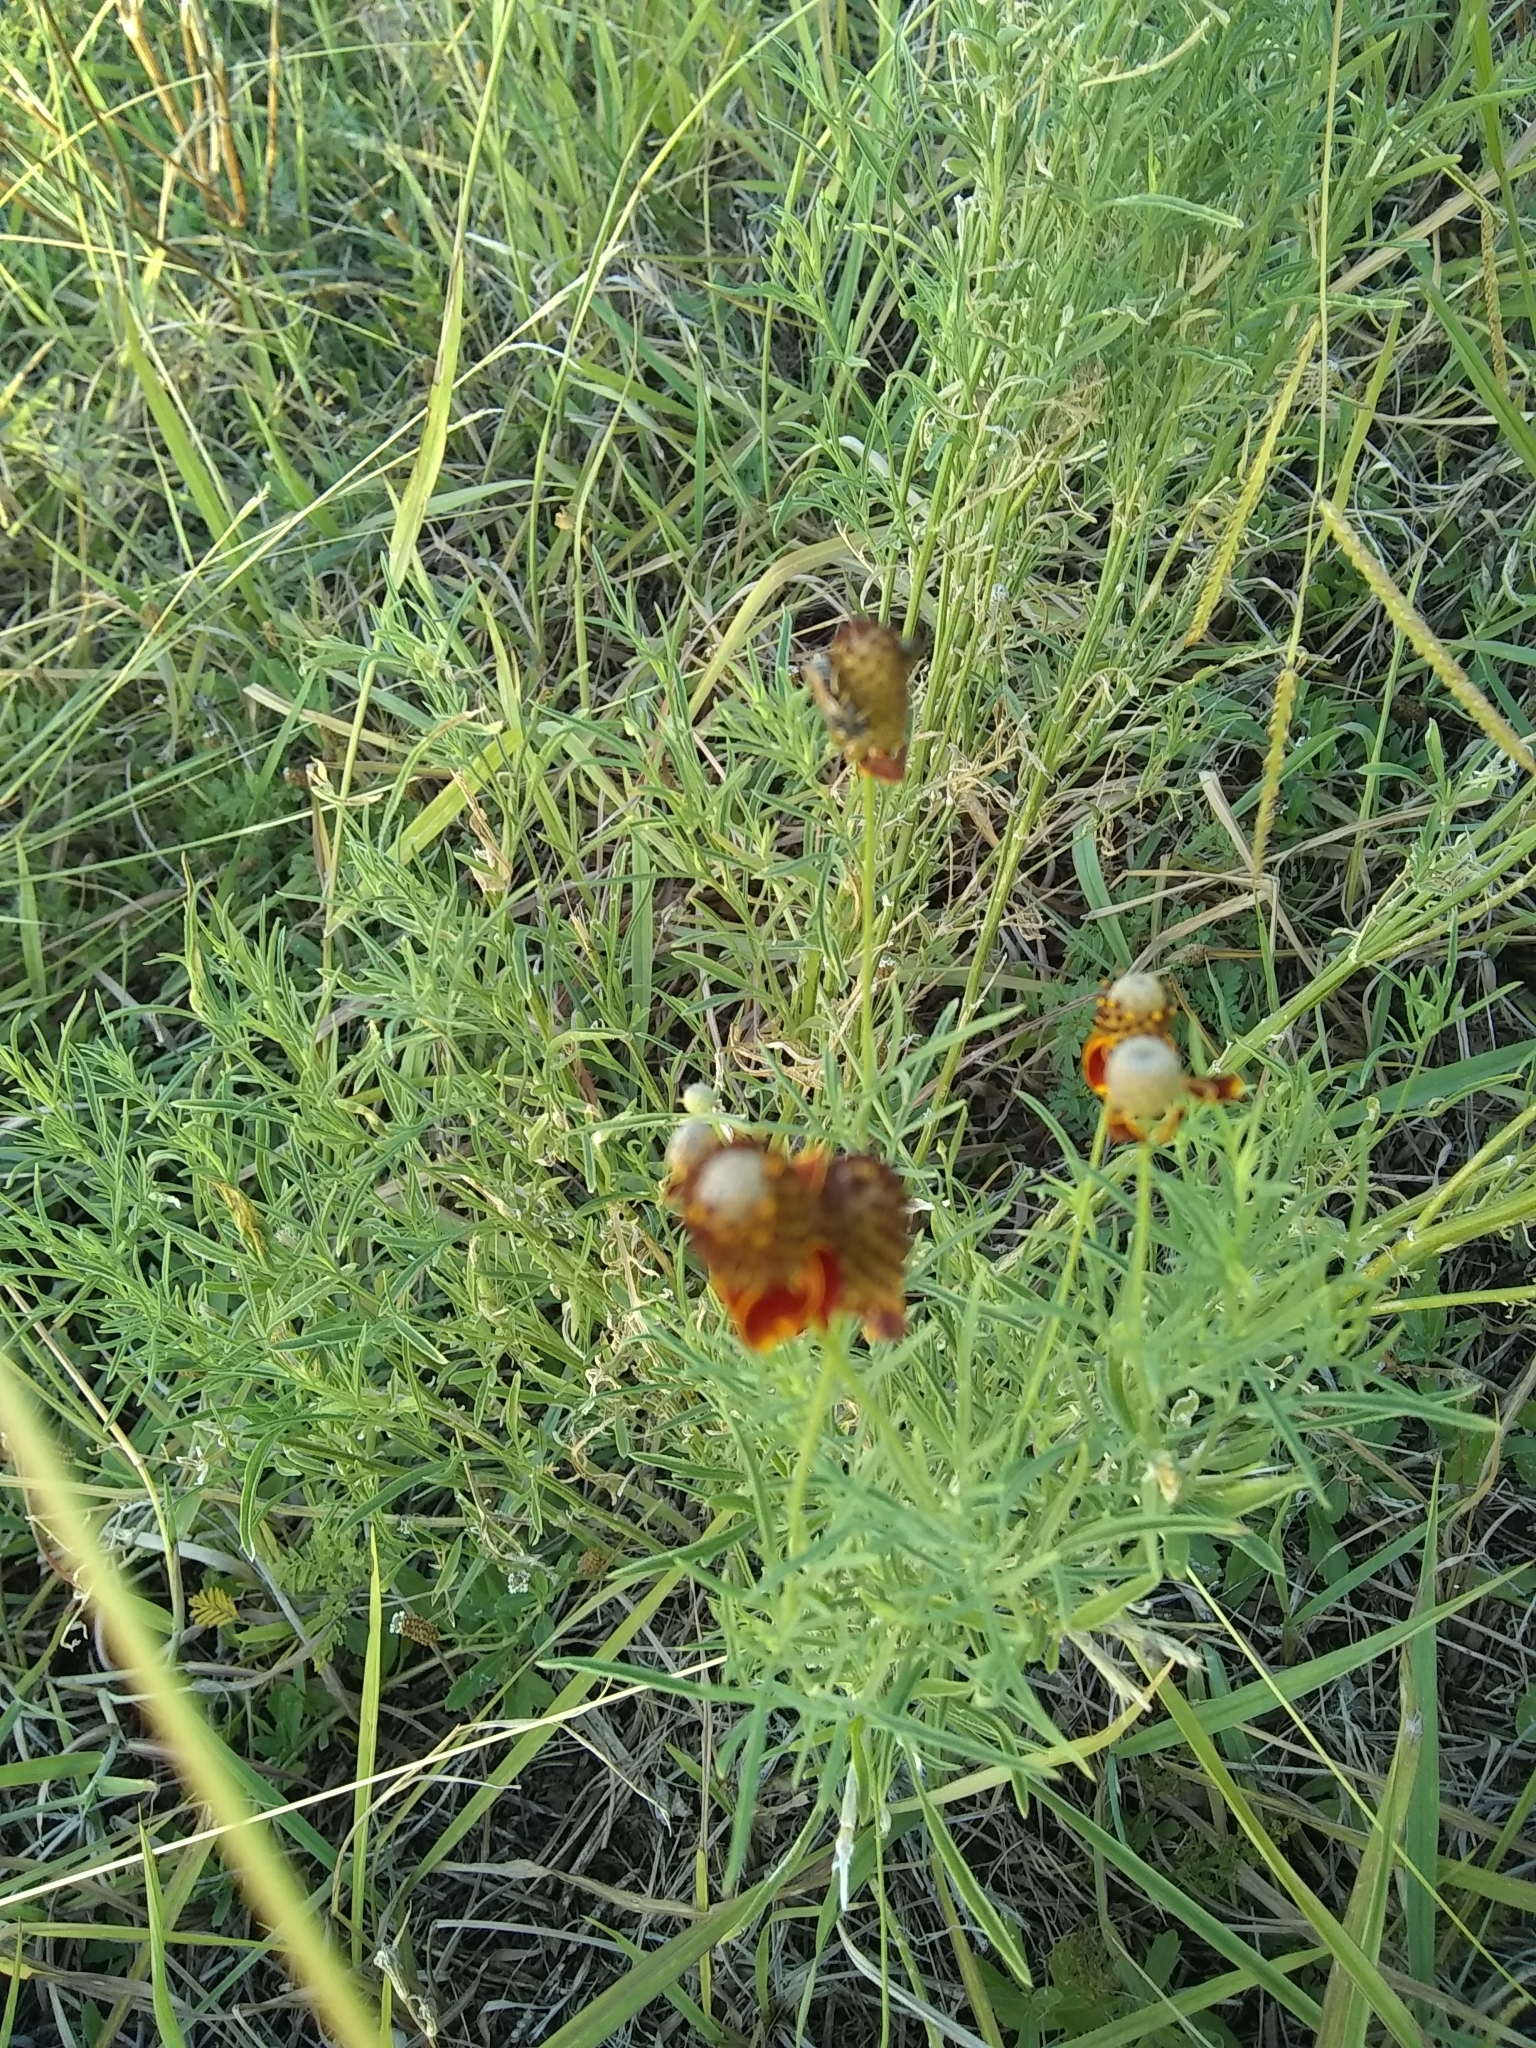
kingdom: Plantae
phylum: Tracheophyta
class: Magnoliopsida
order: Asterales
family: Asteraceae
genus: Ratibida
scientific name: Ratibida columnifera
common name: Prairie coneflower
